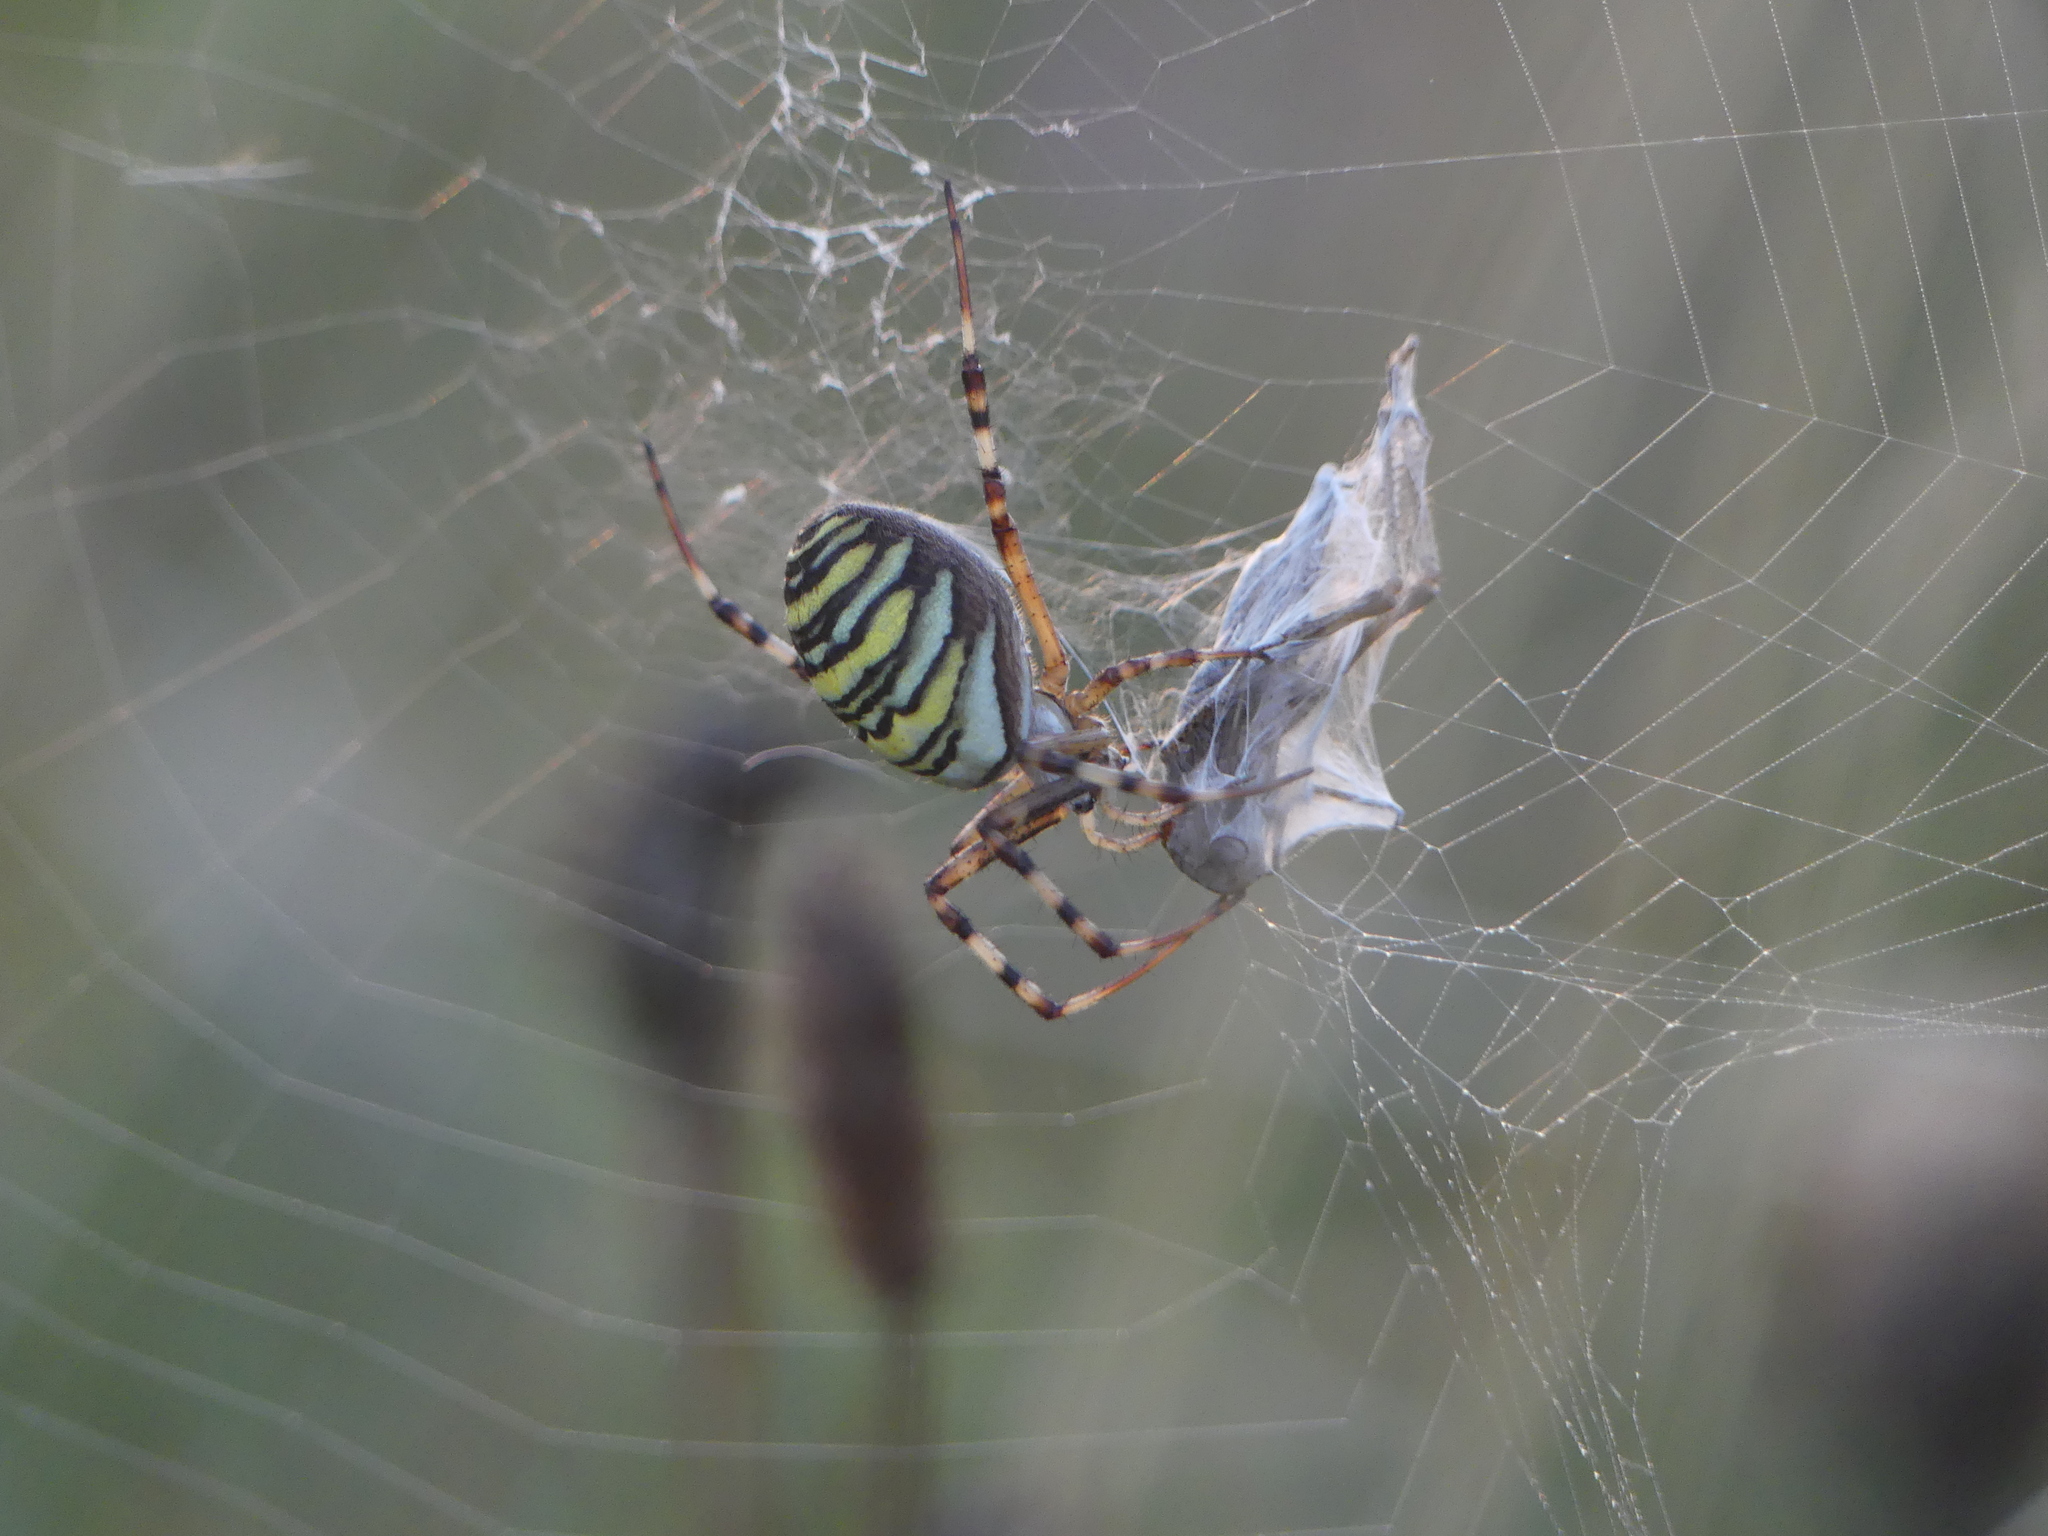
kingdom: Animalia
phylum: Arthropoda
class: Arachnida
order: Araneae
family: Araneidae
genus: Argiope
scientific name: Argiope bruennichi
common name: Wasp spider
